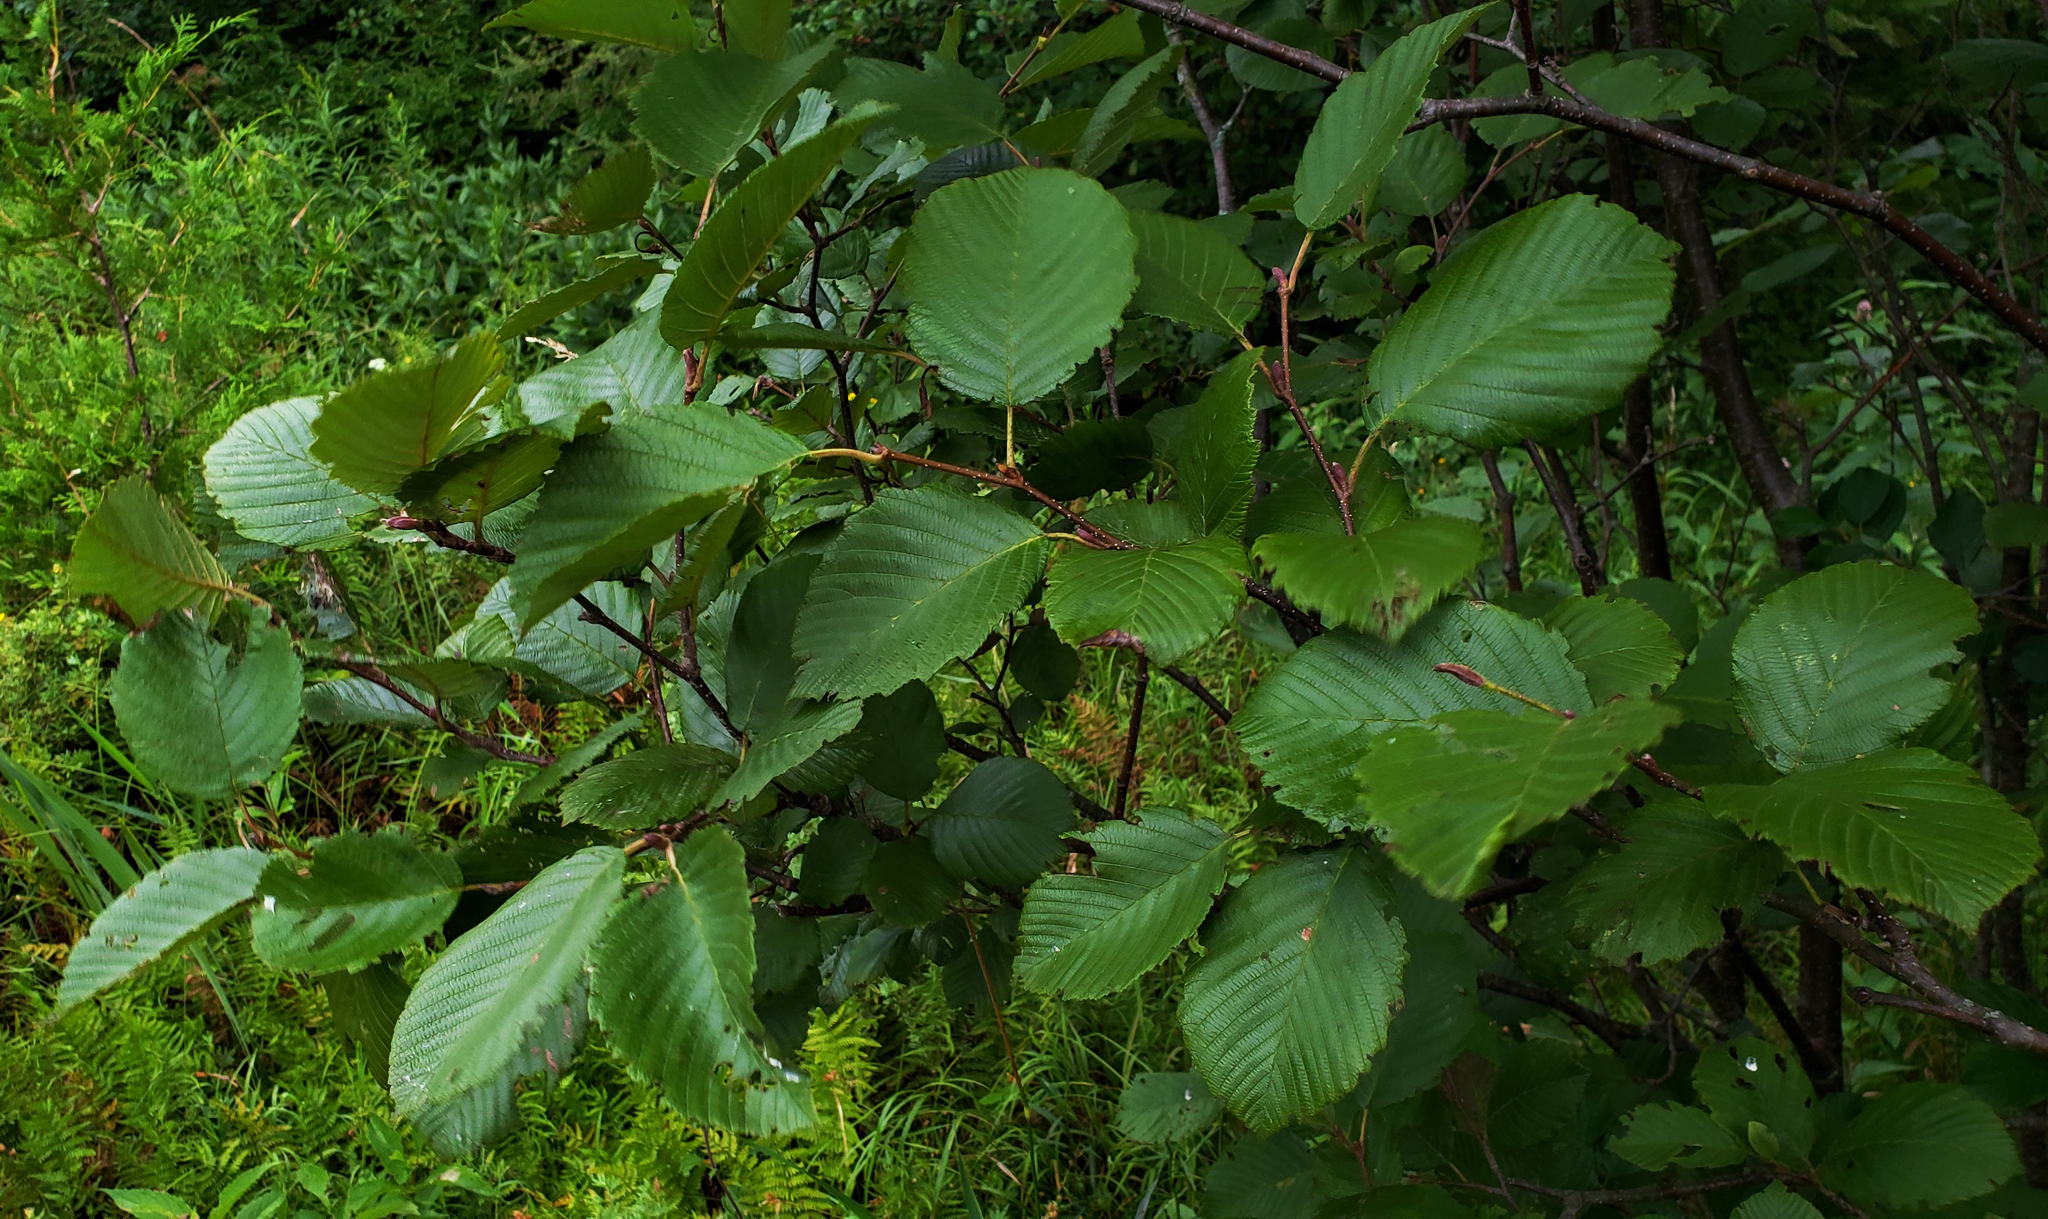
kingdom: Plantae
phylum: Tracheophyta
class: Magnoliopsida
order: Fagales
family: Betulaceae
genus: Alnus
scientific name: Alnus incana
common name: Grey alder
